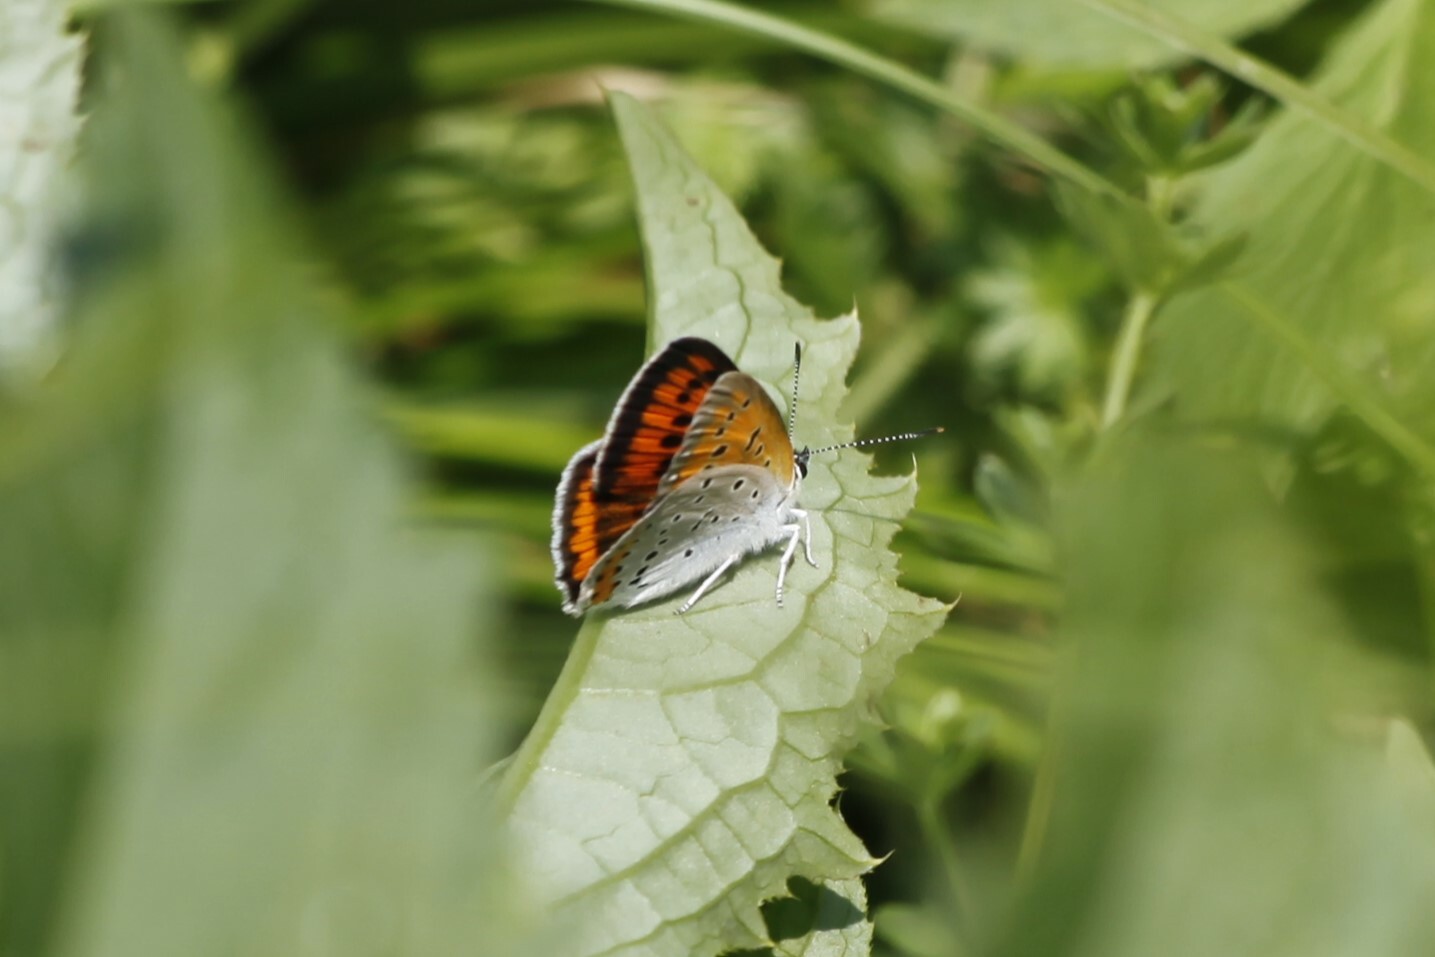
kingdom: Animalia
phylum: Arthropoda
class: Insecta
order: Lepidoptera
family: Lycaenidae
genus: Lycaena
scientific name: Lycaena dispar
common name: Large copper
